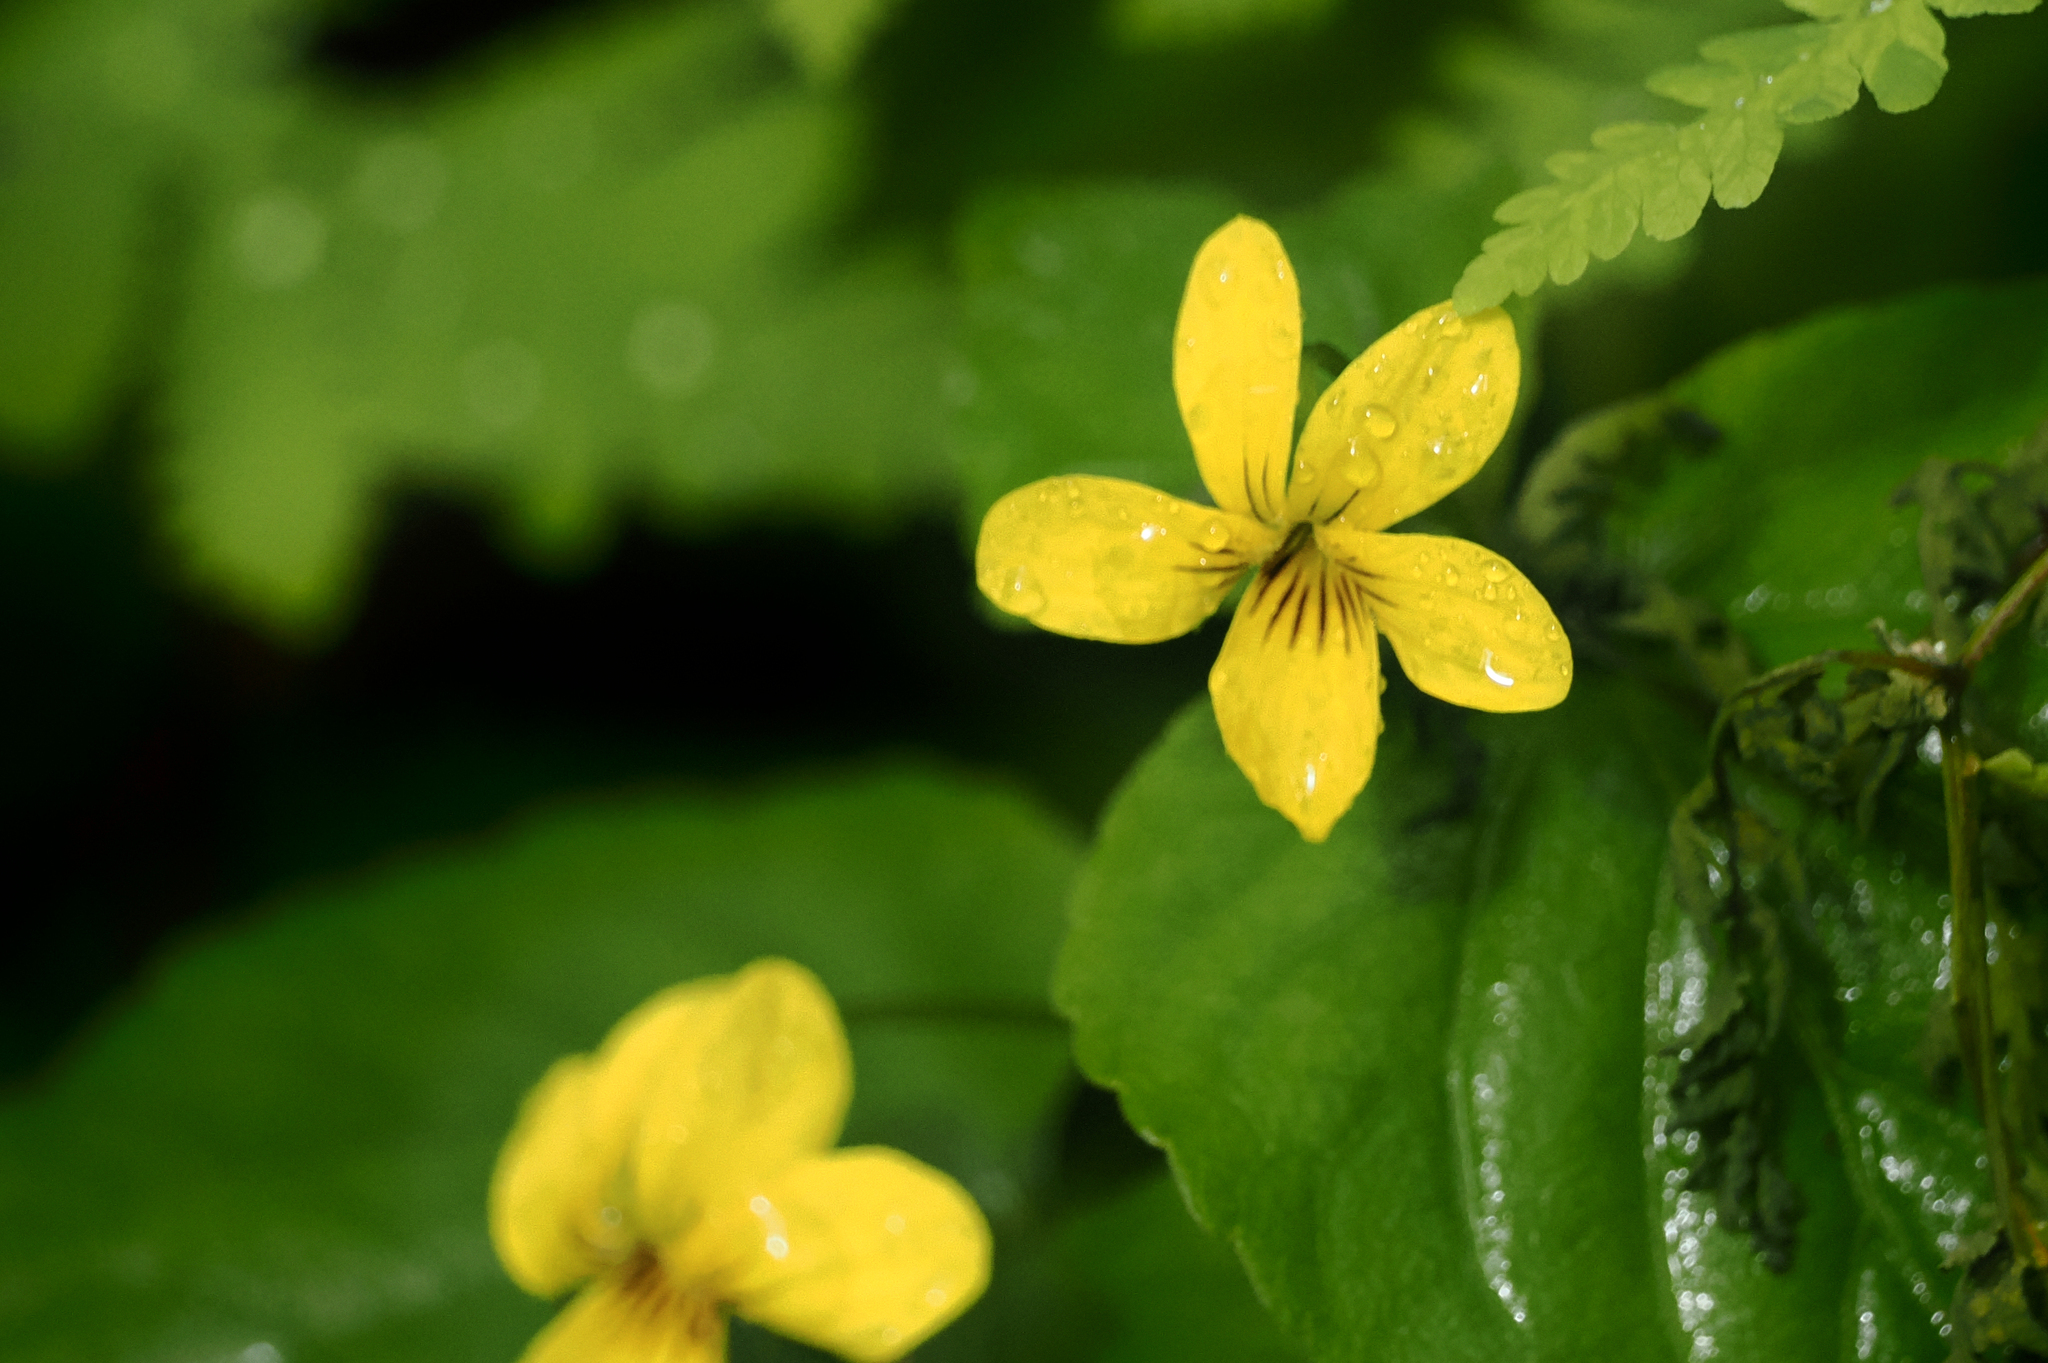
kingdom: Plantae
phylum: Tracheophyta
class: Magnoliopsida
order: Malpighiales
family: Violaceae
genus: Viola
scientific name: Viola glabella
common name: Stream violet
